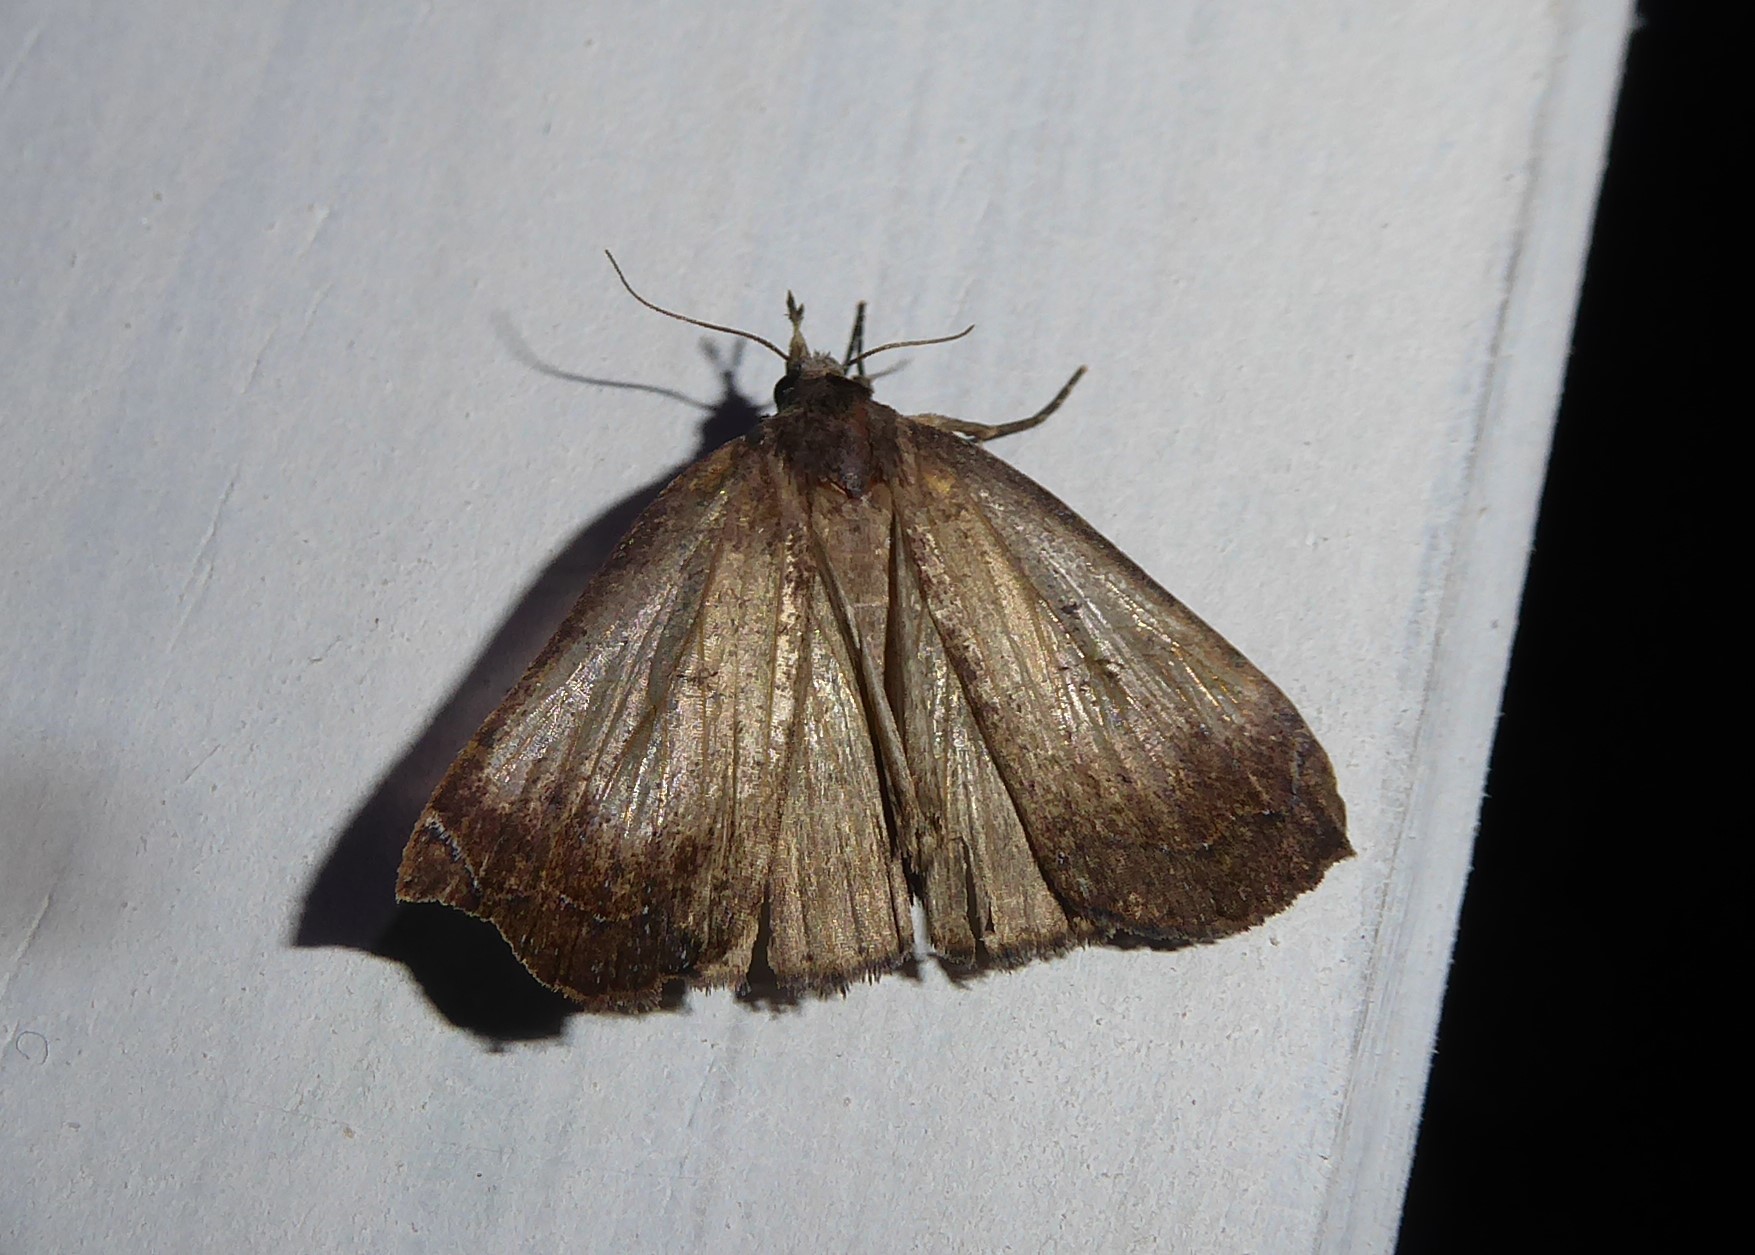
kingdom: Animalia
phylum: Arthropoda
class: Insecta
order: Lepidoptera
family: Erebidae
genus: Rhapsa
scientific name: Rhapsa scotosialis
